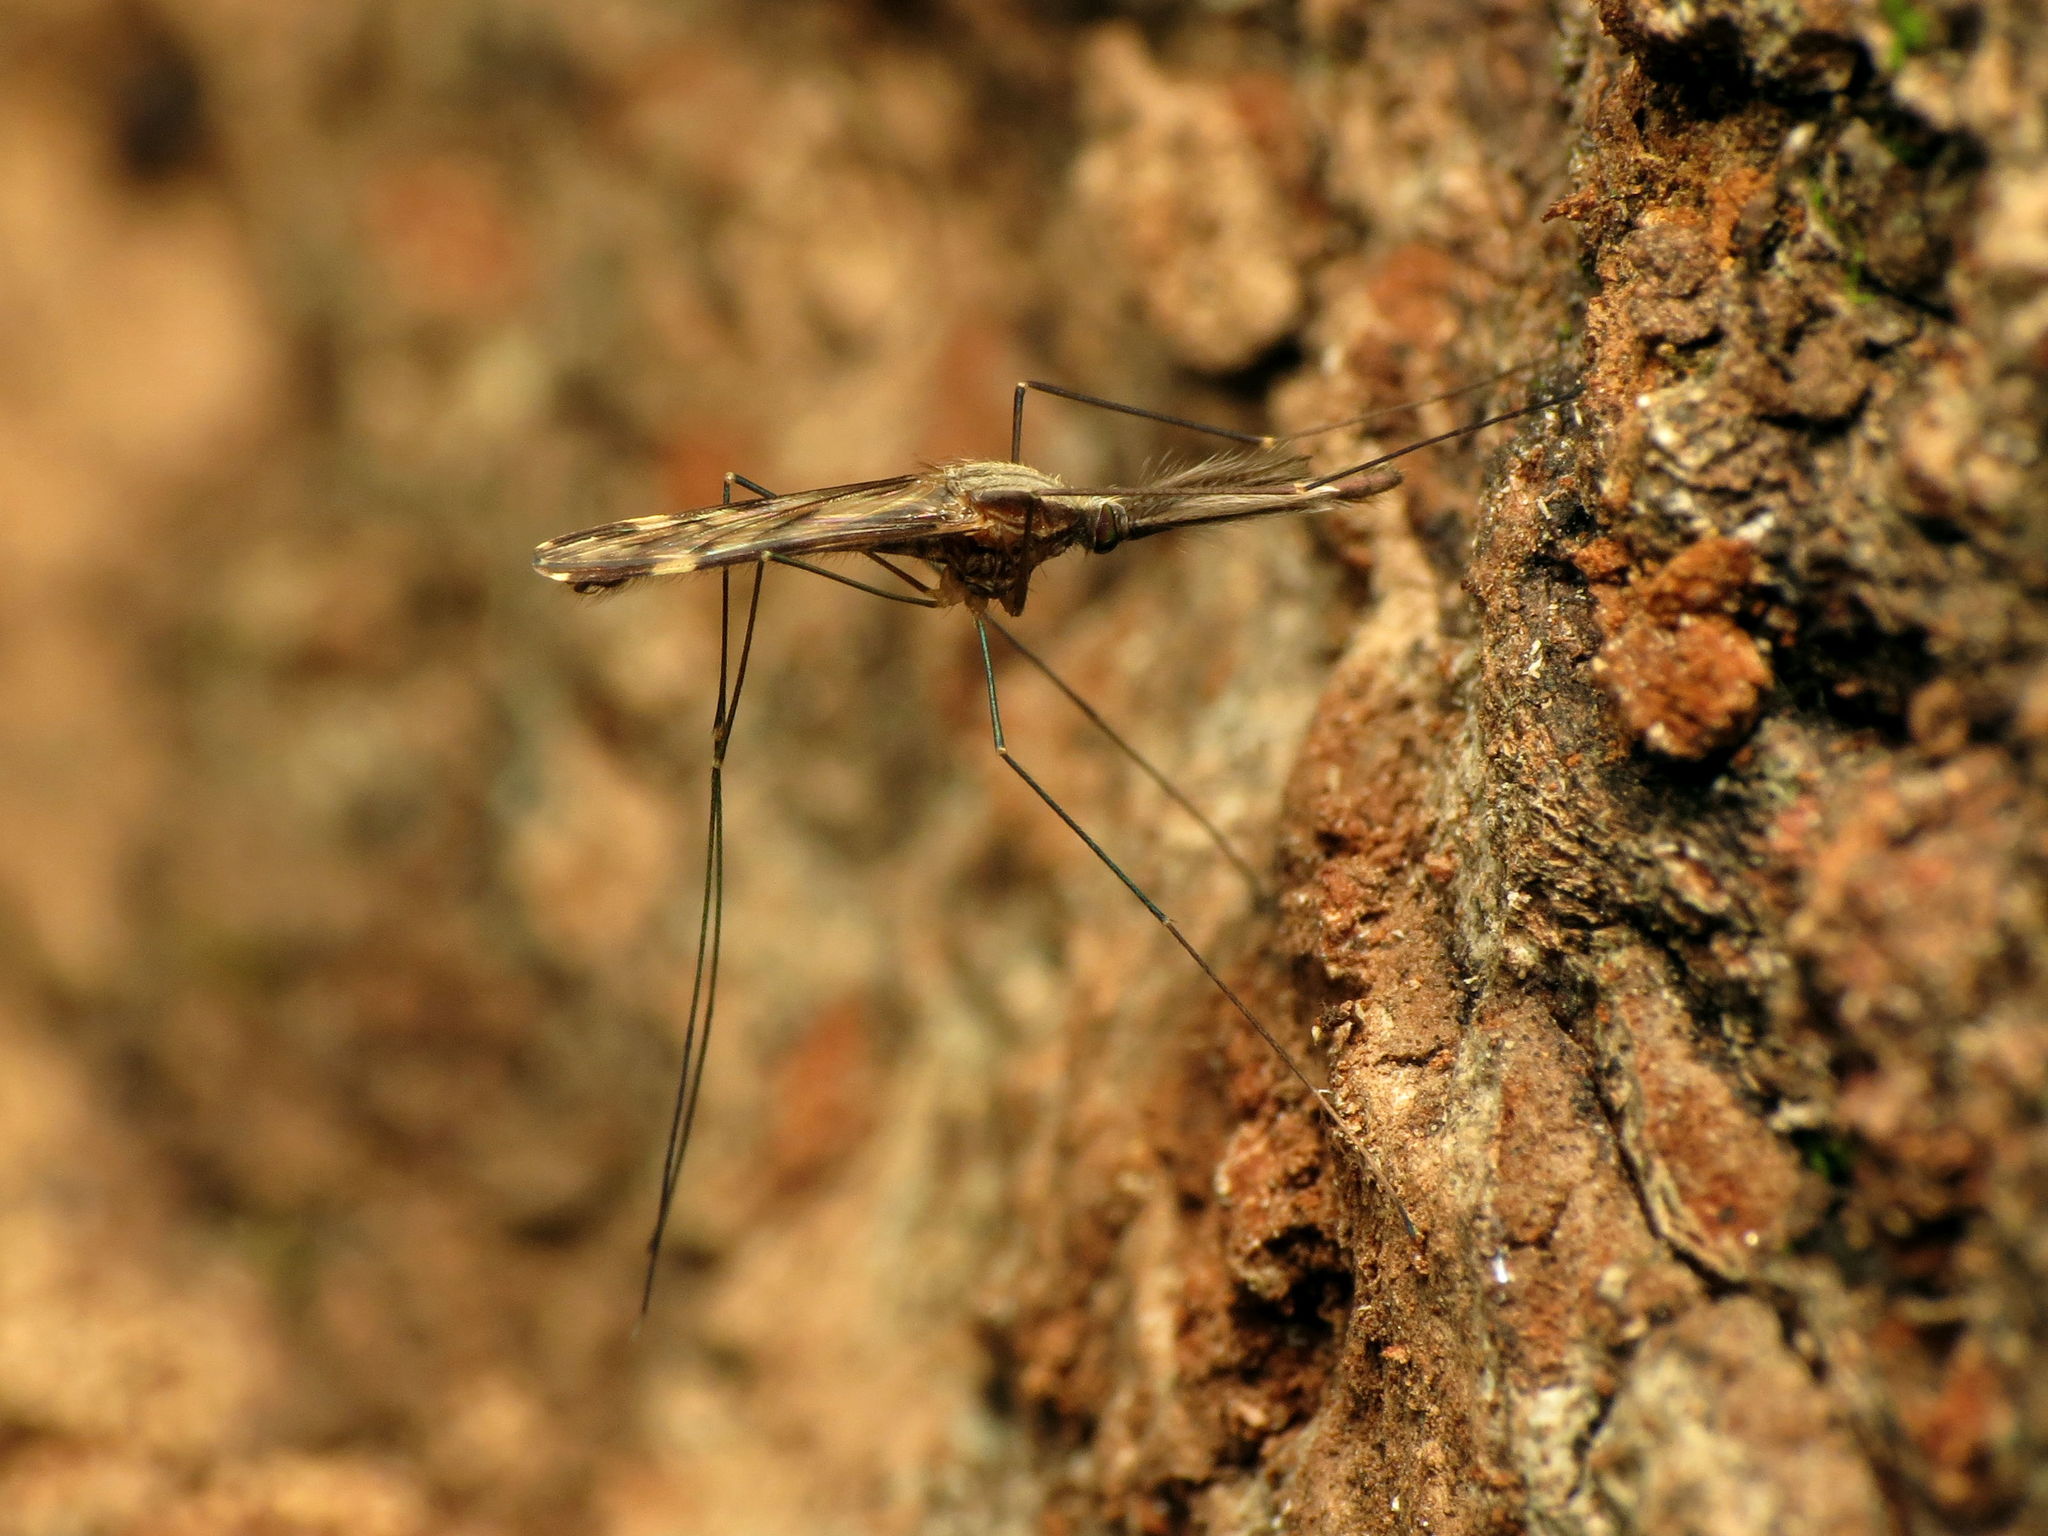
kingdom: Animalia
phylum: Arthropoda
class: Insecta
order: Diptera
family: Culicidae
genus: Anopheles
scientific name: Anopheles punctipennis
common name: Woodland malaria mosquito
